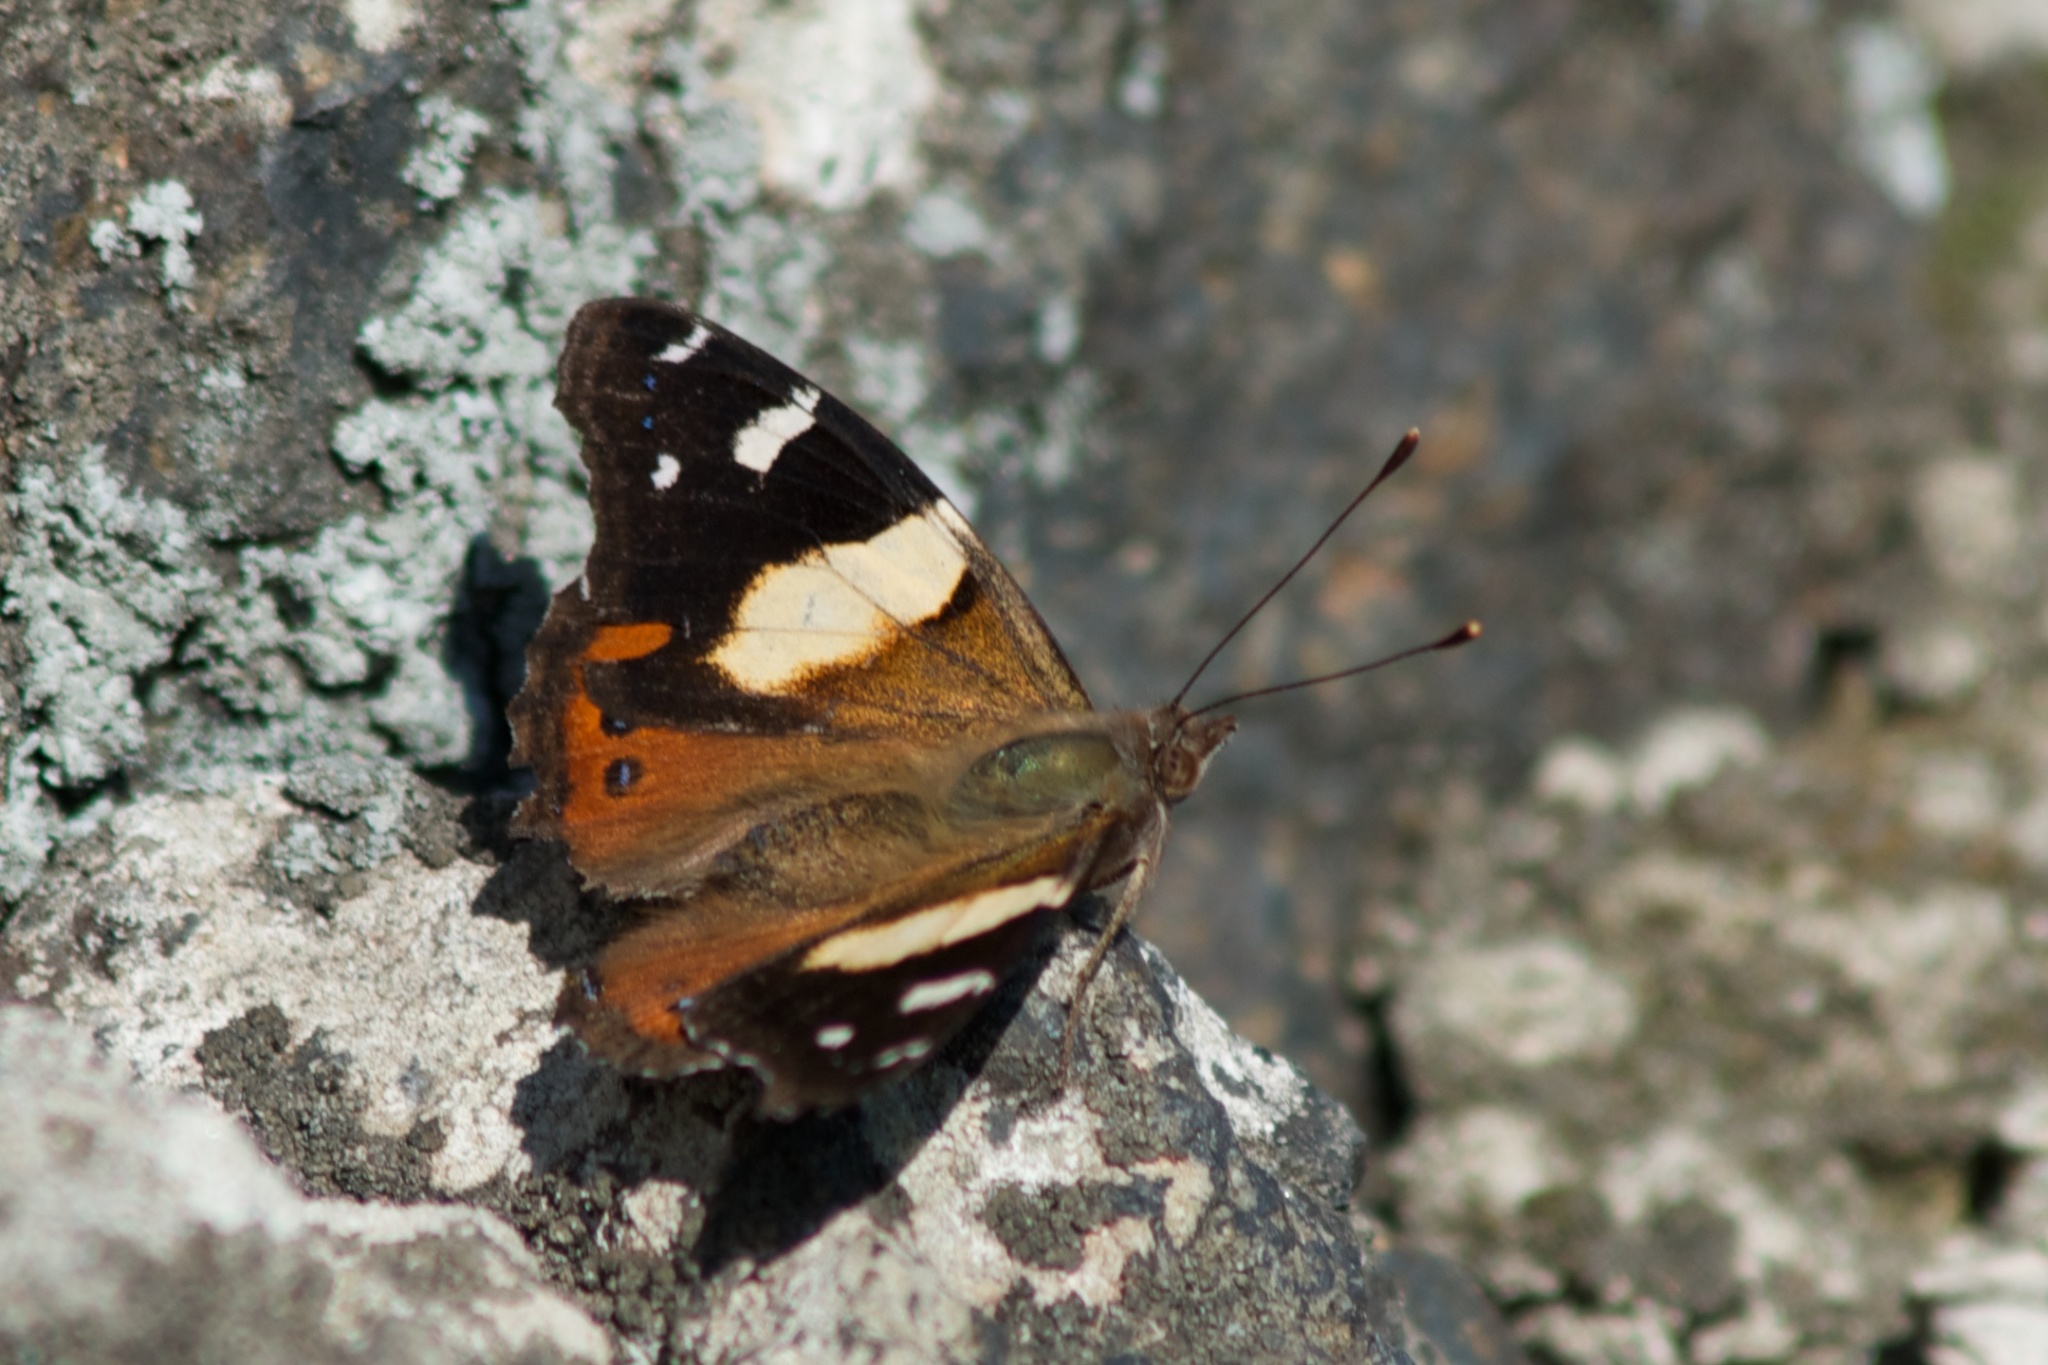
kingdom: Animalia
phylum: Arthropoda
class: Insecta
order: Lepidoptera
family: Nymphalidae
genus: Vanessa
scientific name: Vanessa itea
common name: Yellow admiral
